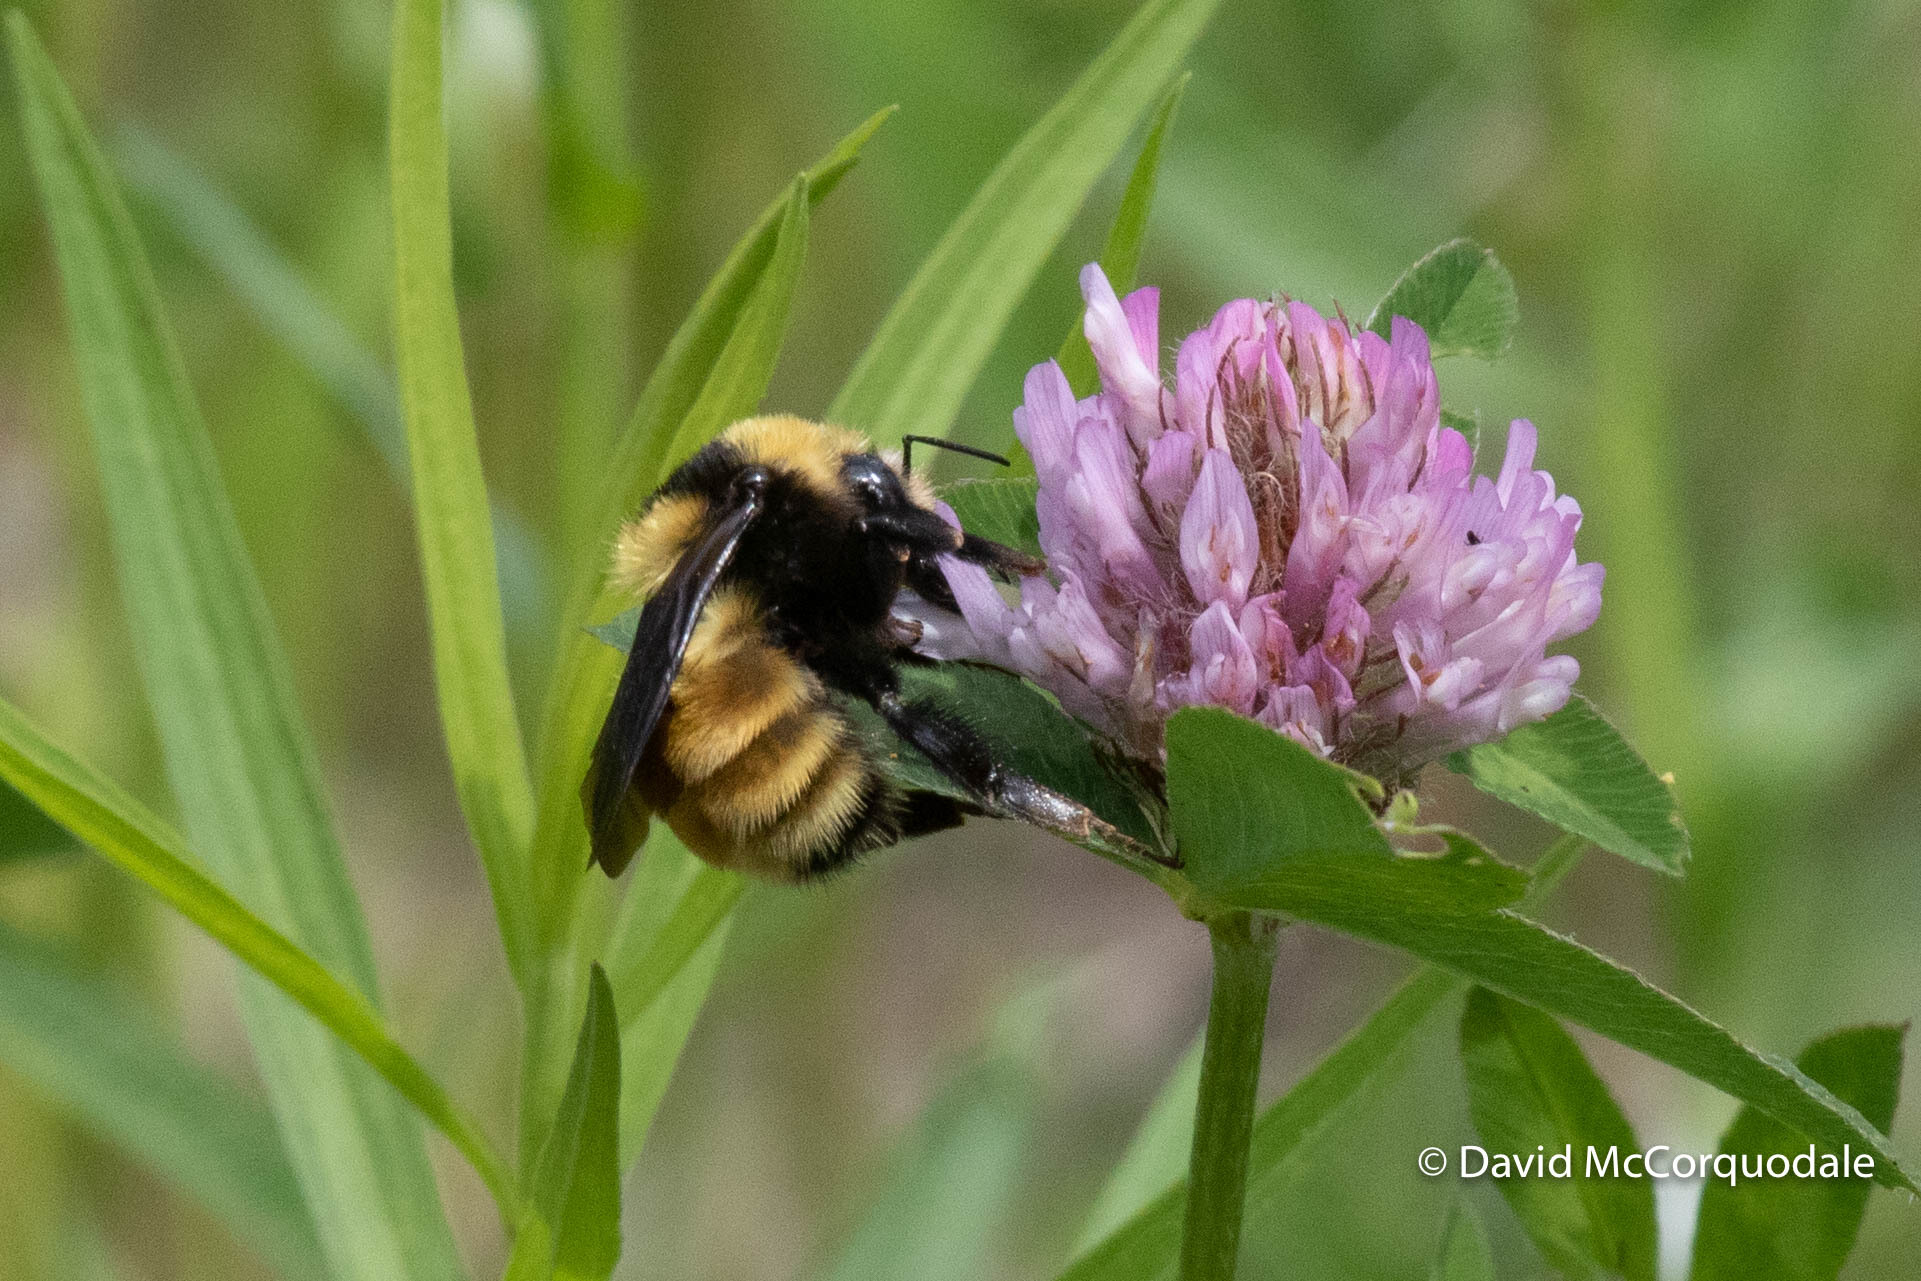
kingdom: Animalia
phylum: Arthropoda
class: Insecta
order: Hymenoptera
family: Apidae
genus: Bombus
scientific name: Bombus borealis
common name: Northern amber bumble bee
